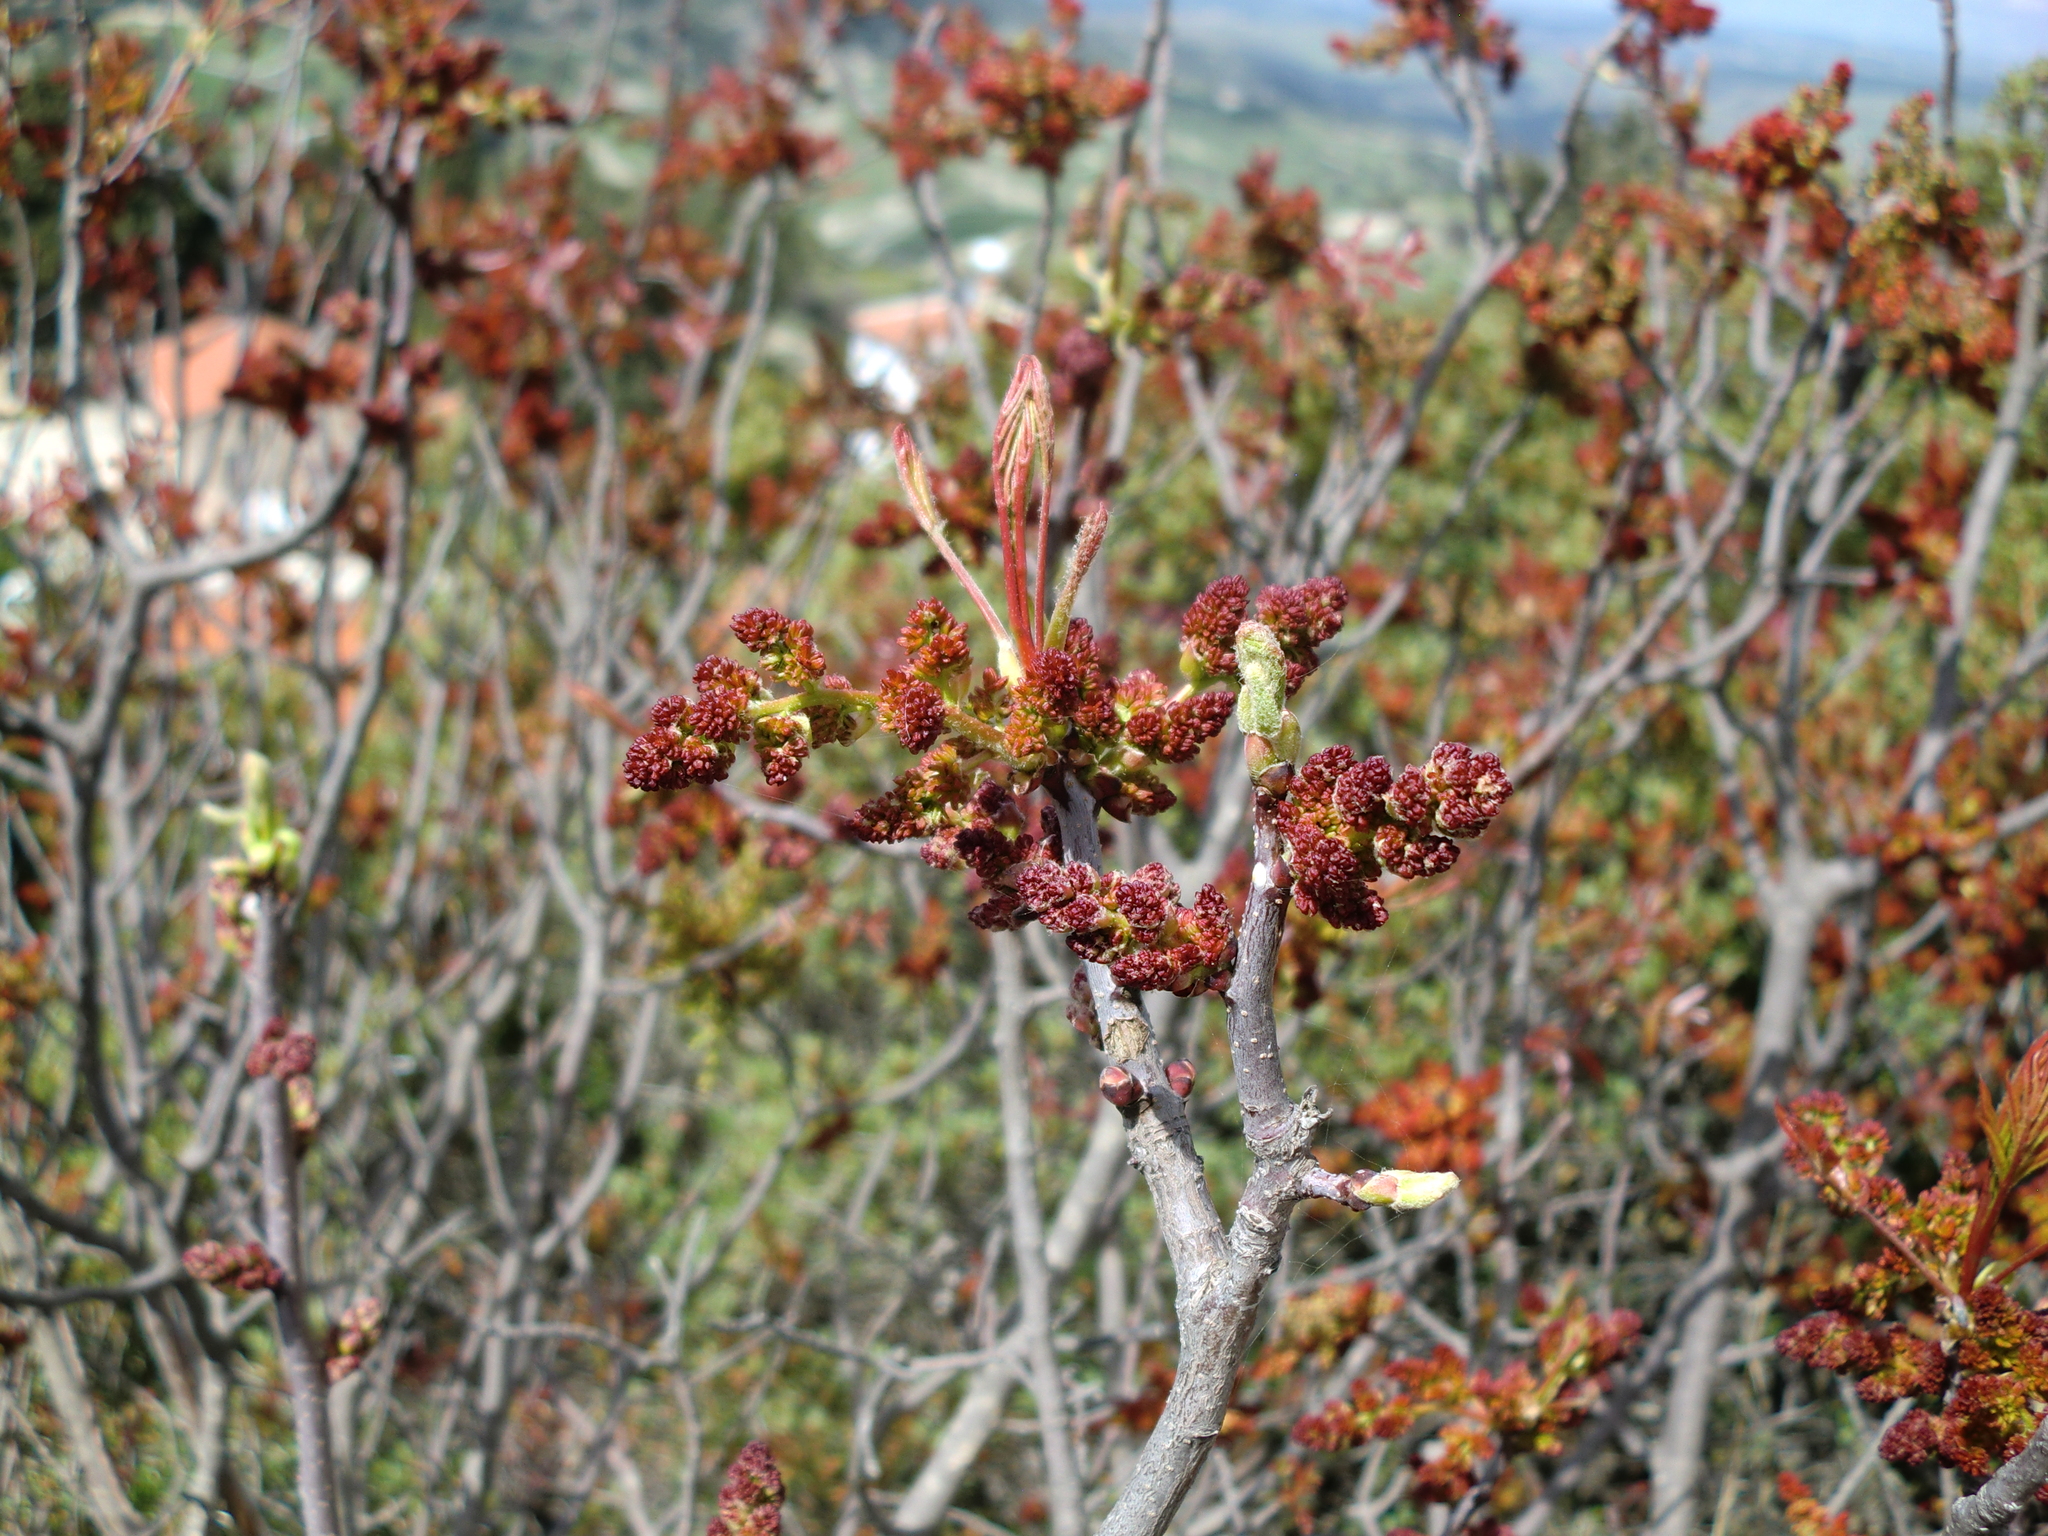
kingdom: Plantae
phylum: Tracheophyta
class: Magnoliopsida
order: Sapindales
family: Anacardiaceae
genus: Pistacia
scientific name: Pistacia terebinthus
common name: Terebinth
